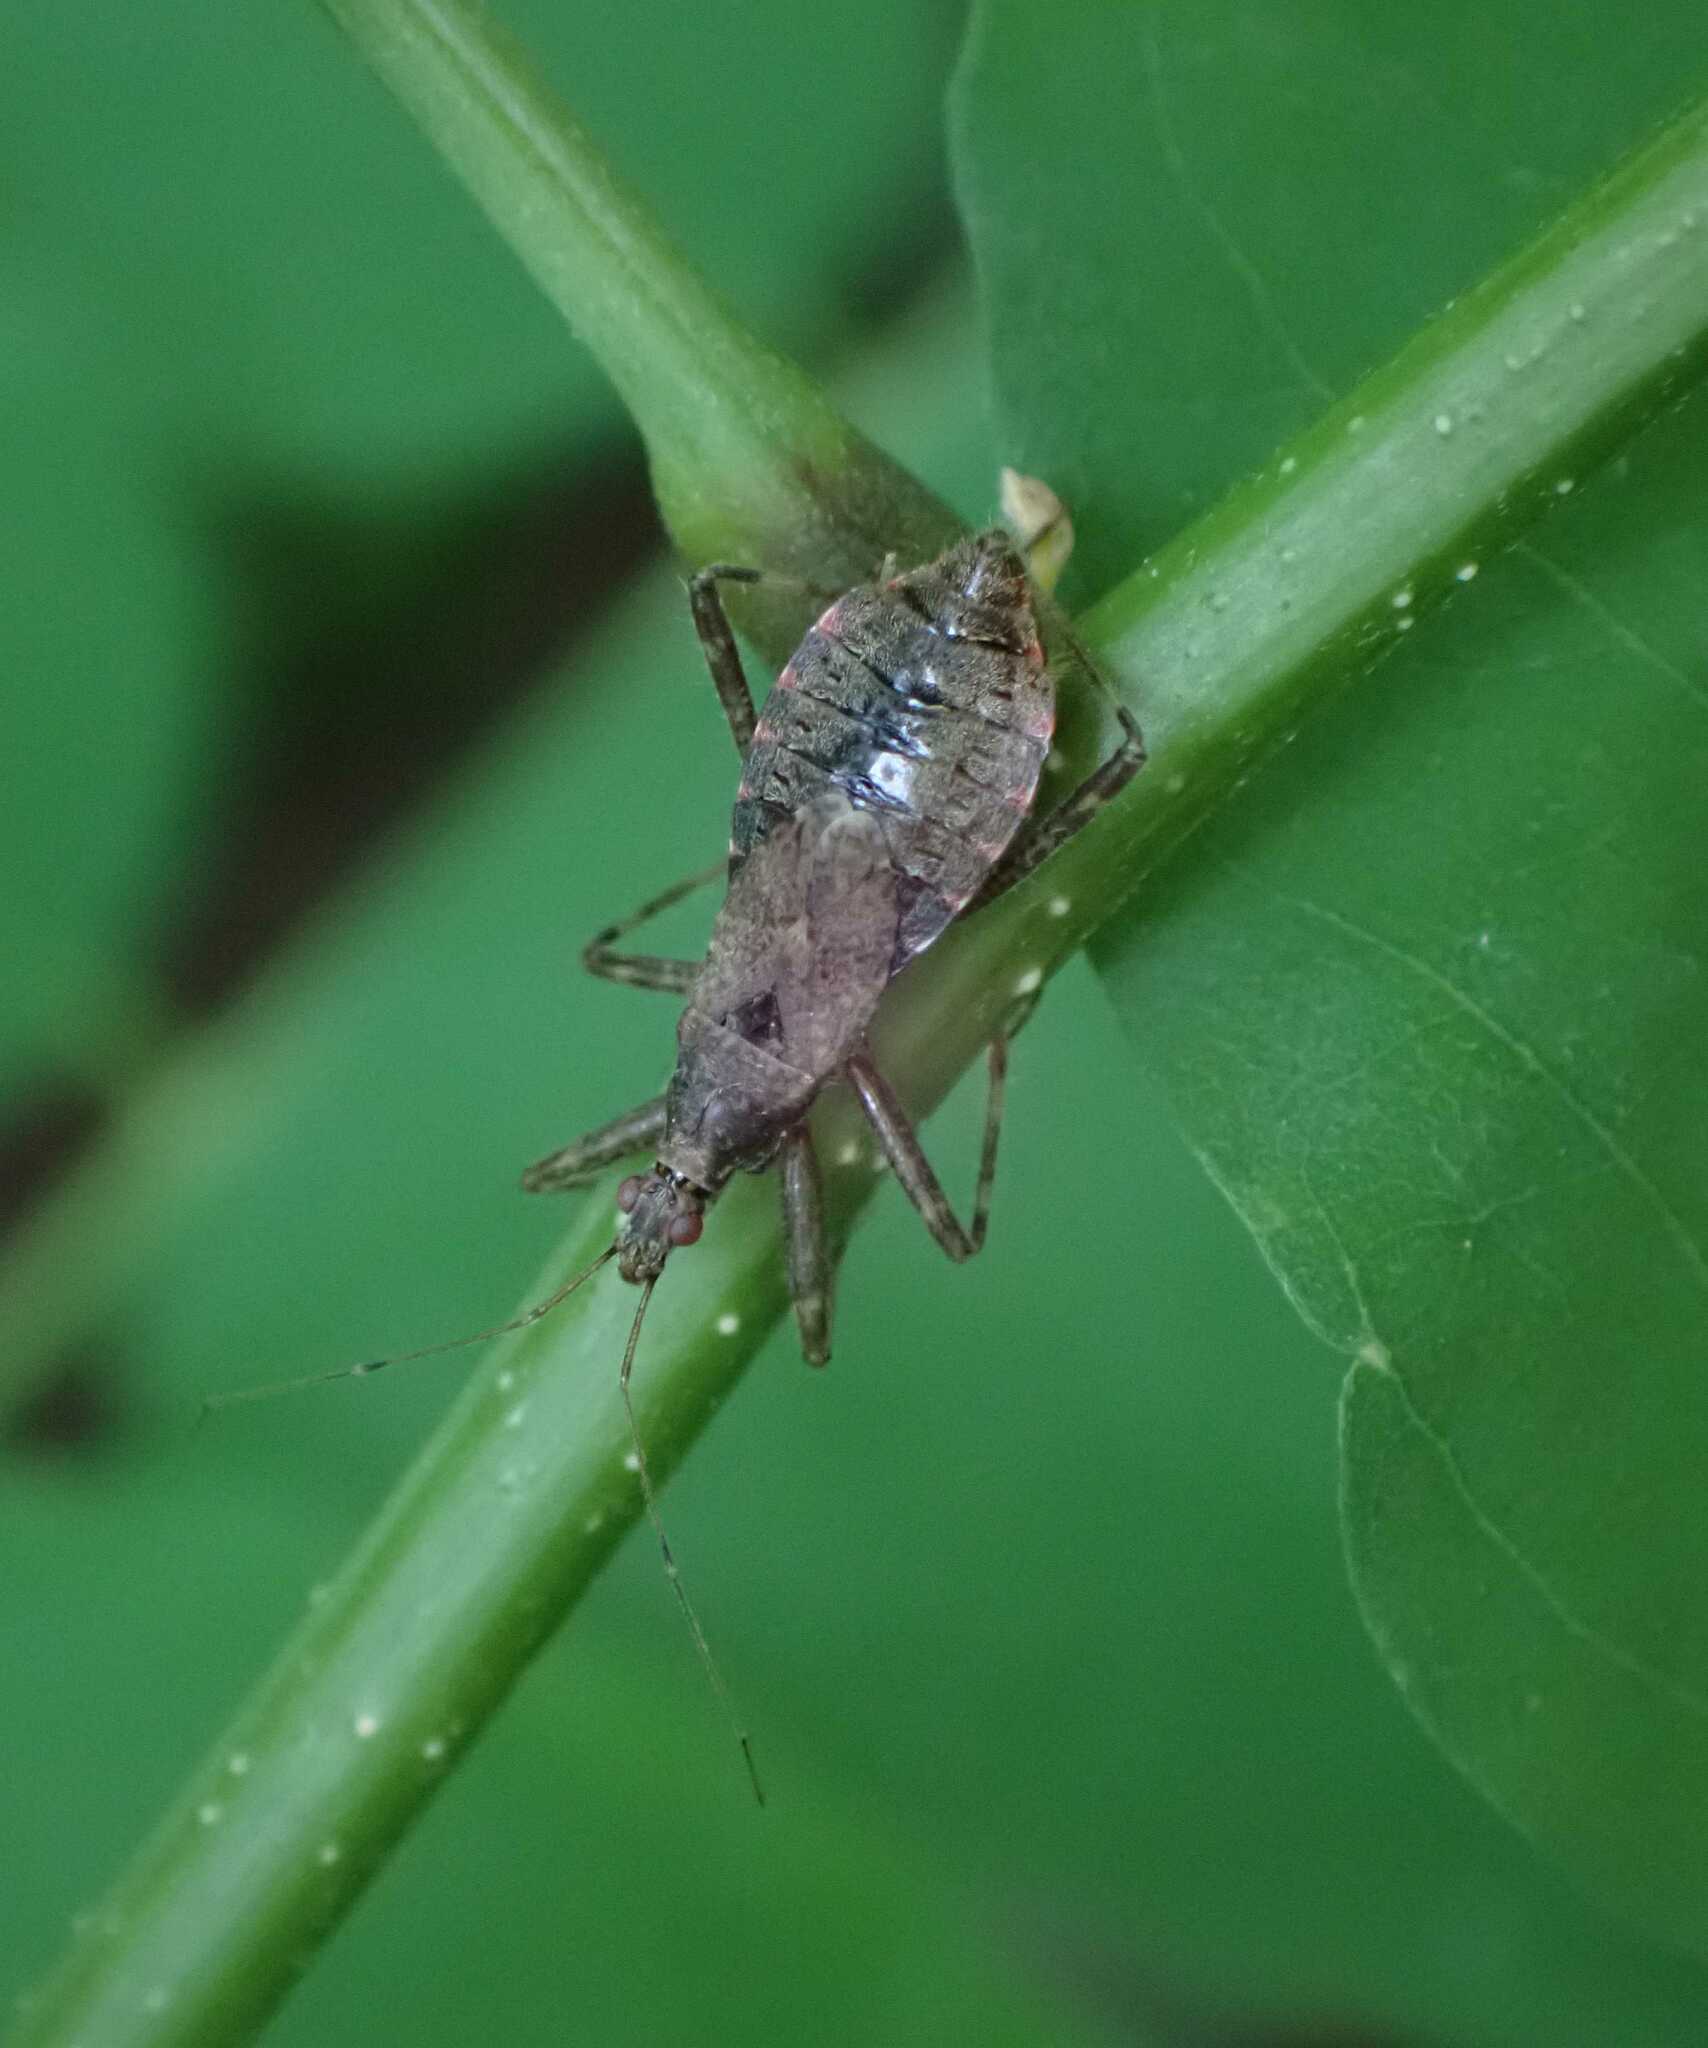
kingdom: Animalia
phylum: Arthropoda
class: Insecta
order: Hemiptera
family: Nabidae
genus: Himacerus
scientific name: Himacerus apterus
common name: Tree damsel bug
